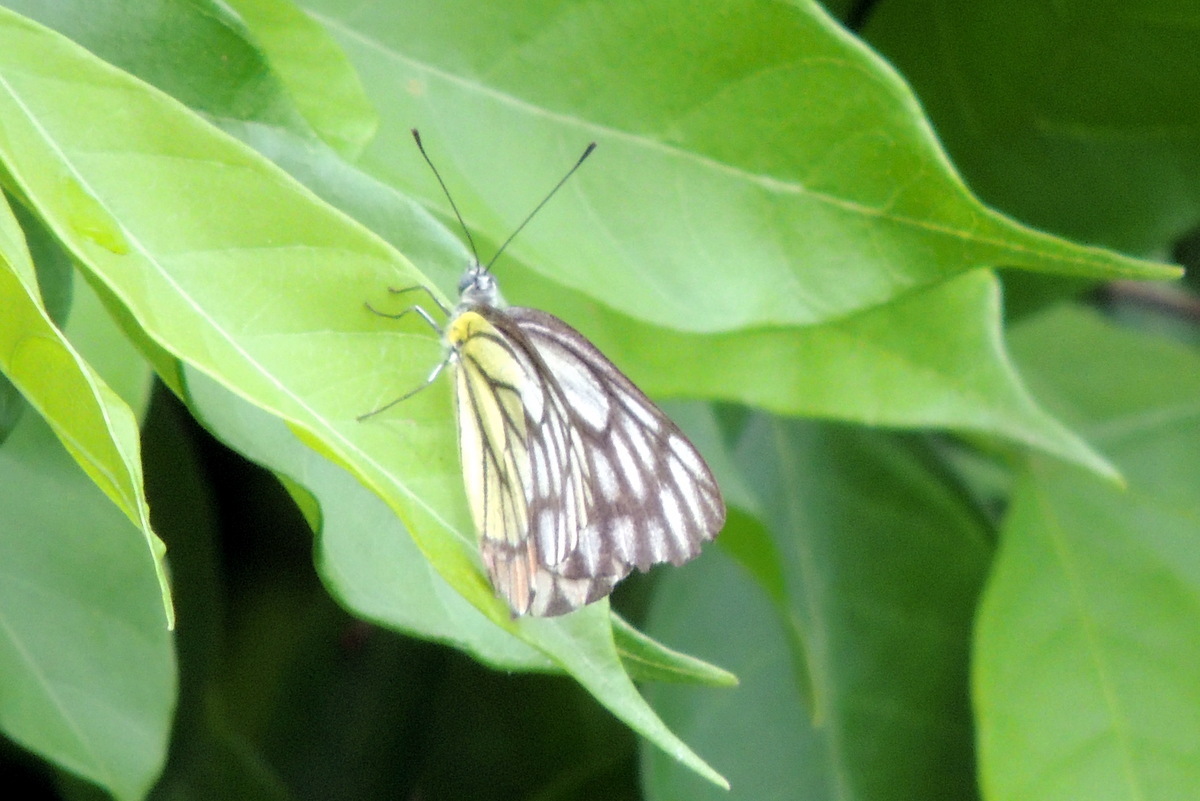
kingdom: Animalia
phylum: Arthropoda
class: Insecta
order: Lepidoptera
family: Pieridae
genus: Delias
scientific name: Delias eucharis
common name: Common jezebel
